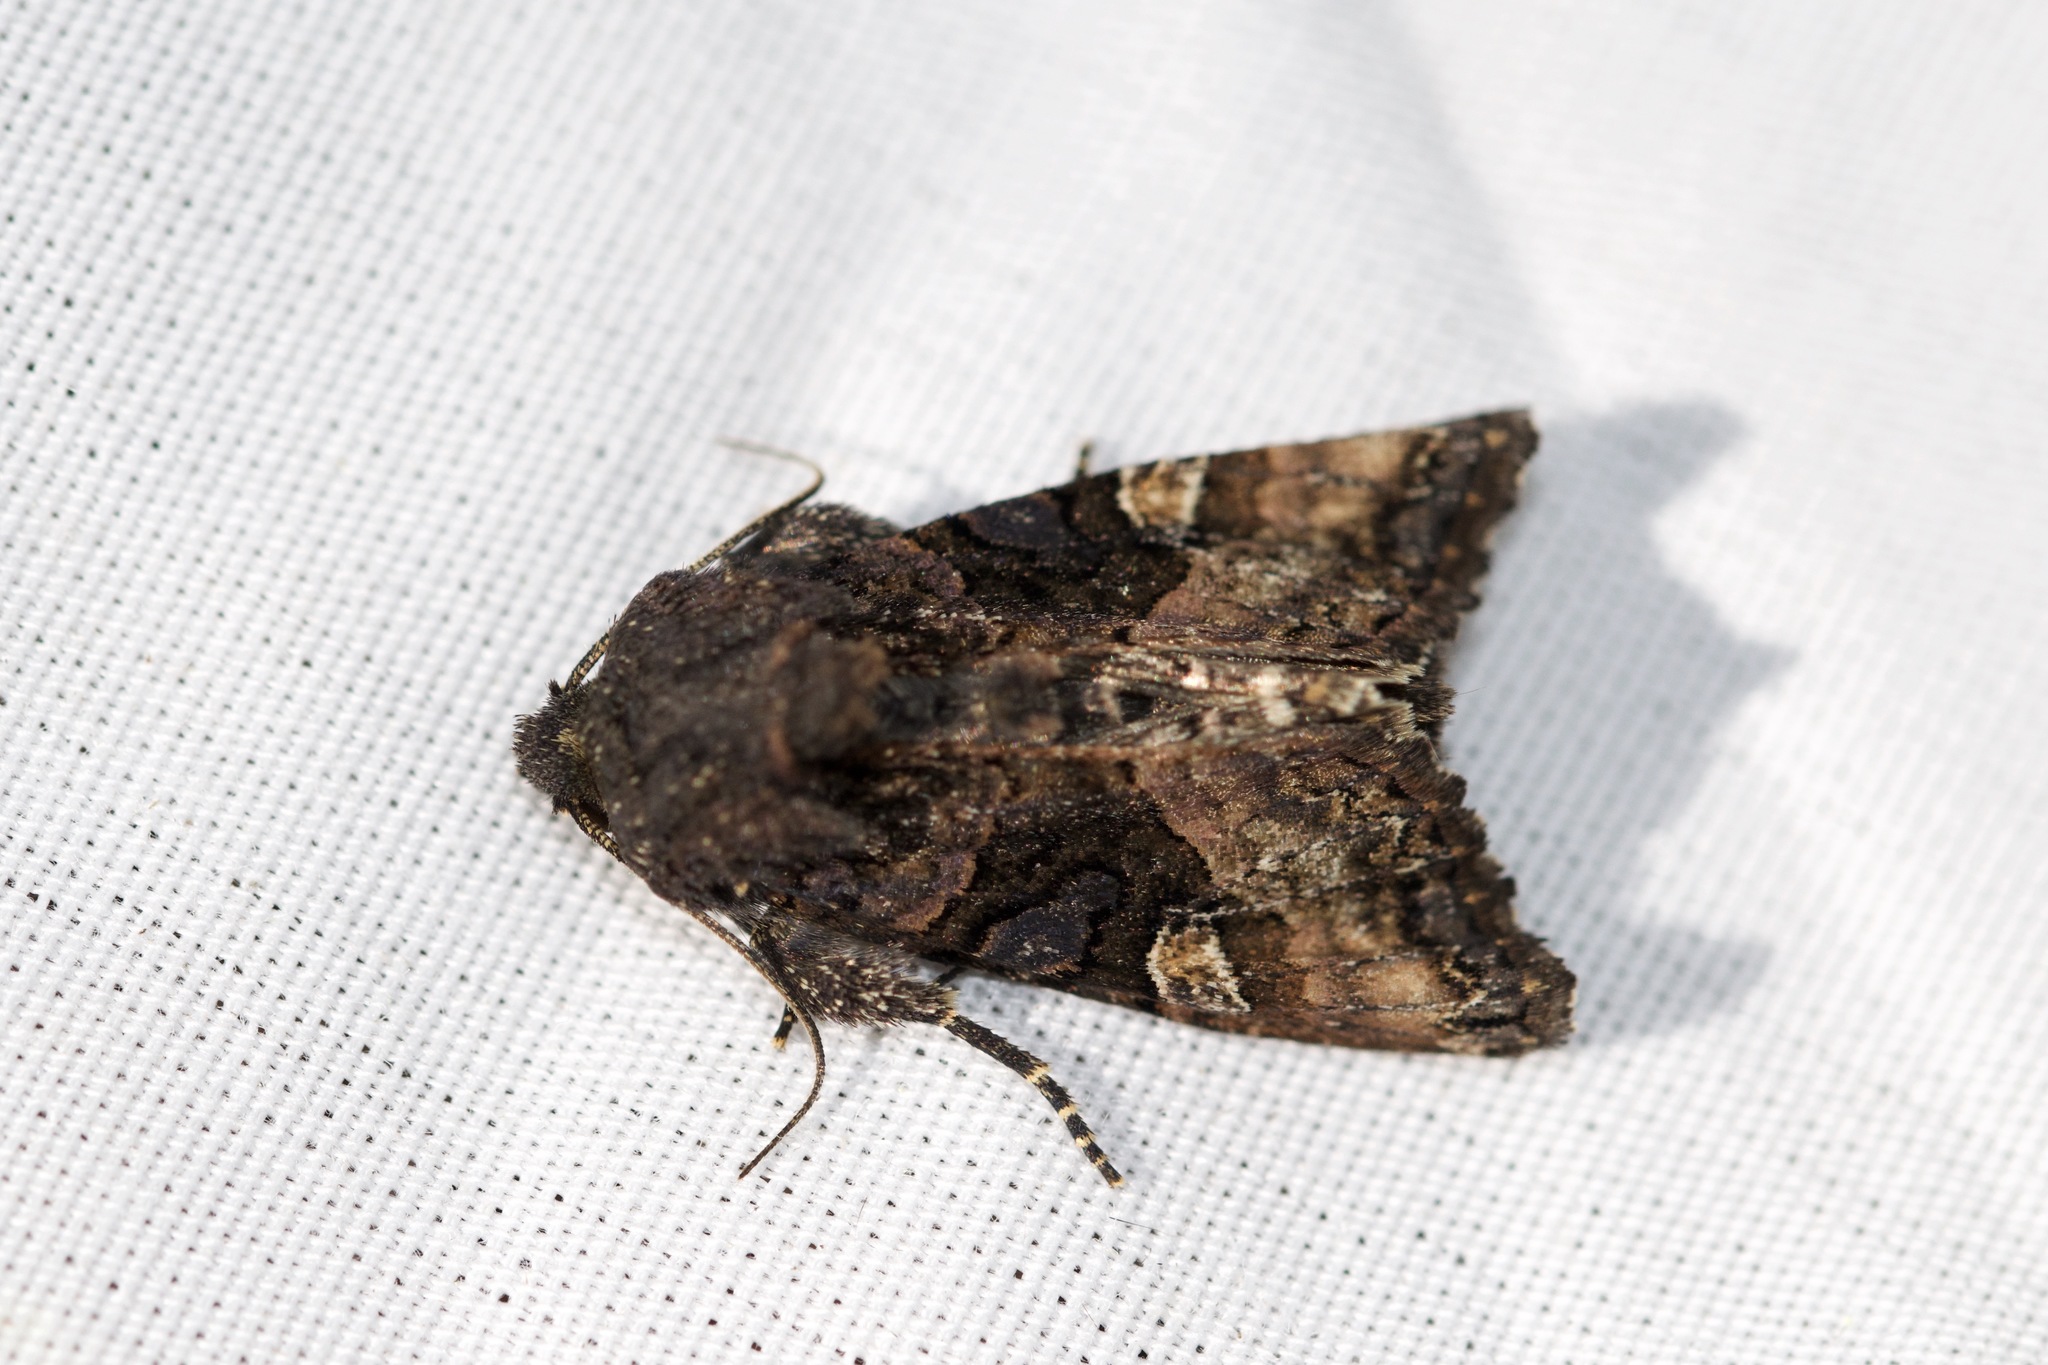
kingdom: Animalia
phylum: Arthropoda
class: Insecta
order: Lepidoptera
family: Noctuidae
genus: Euplexia
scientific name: Euplexia benesimilis
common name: American angle shades
